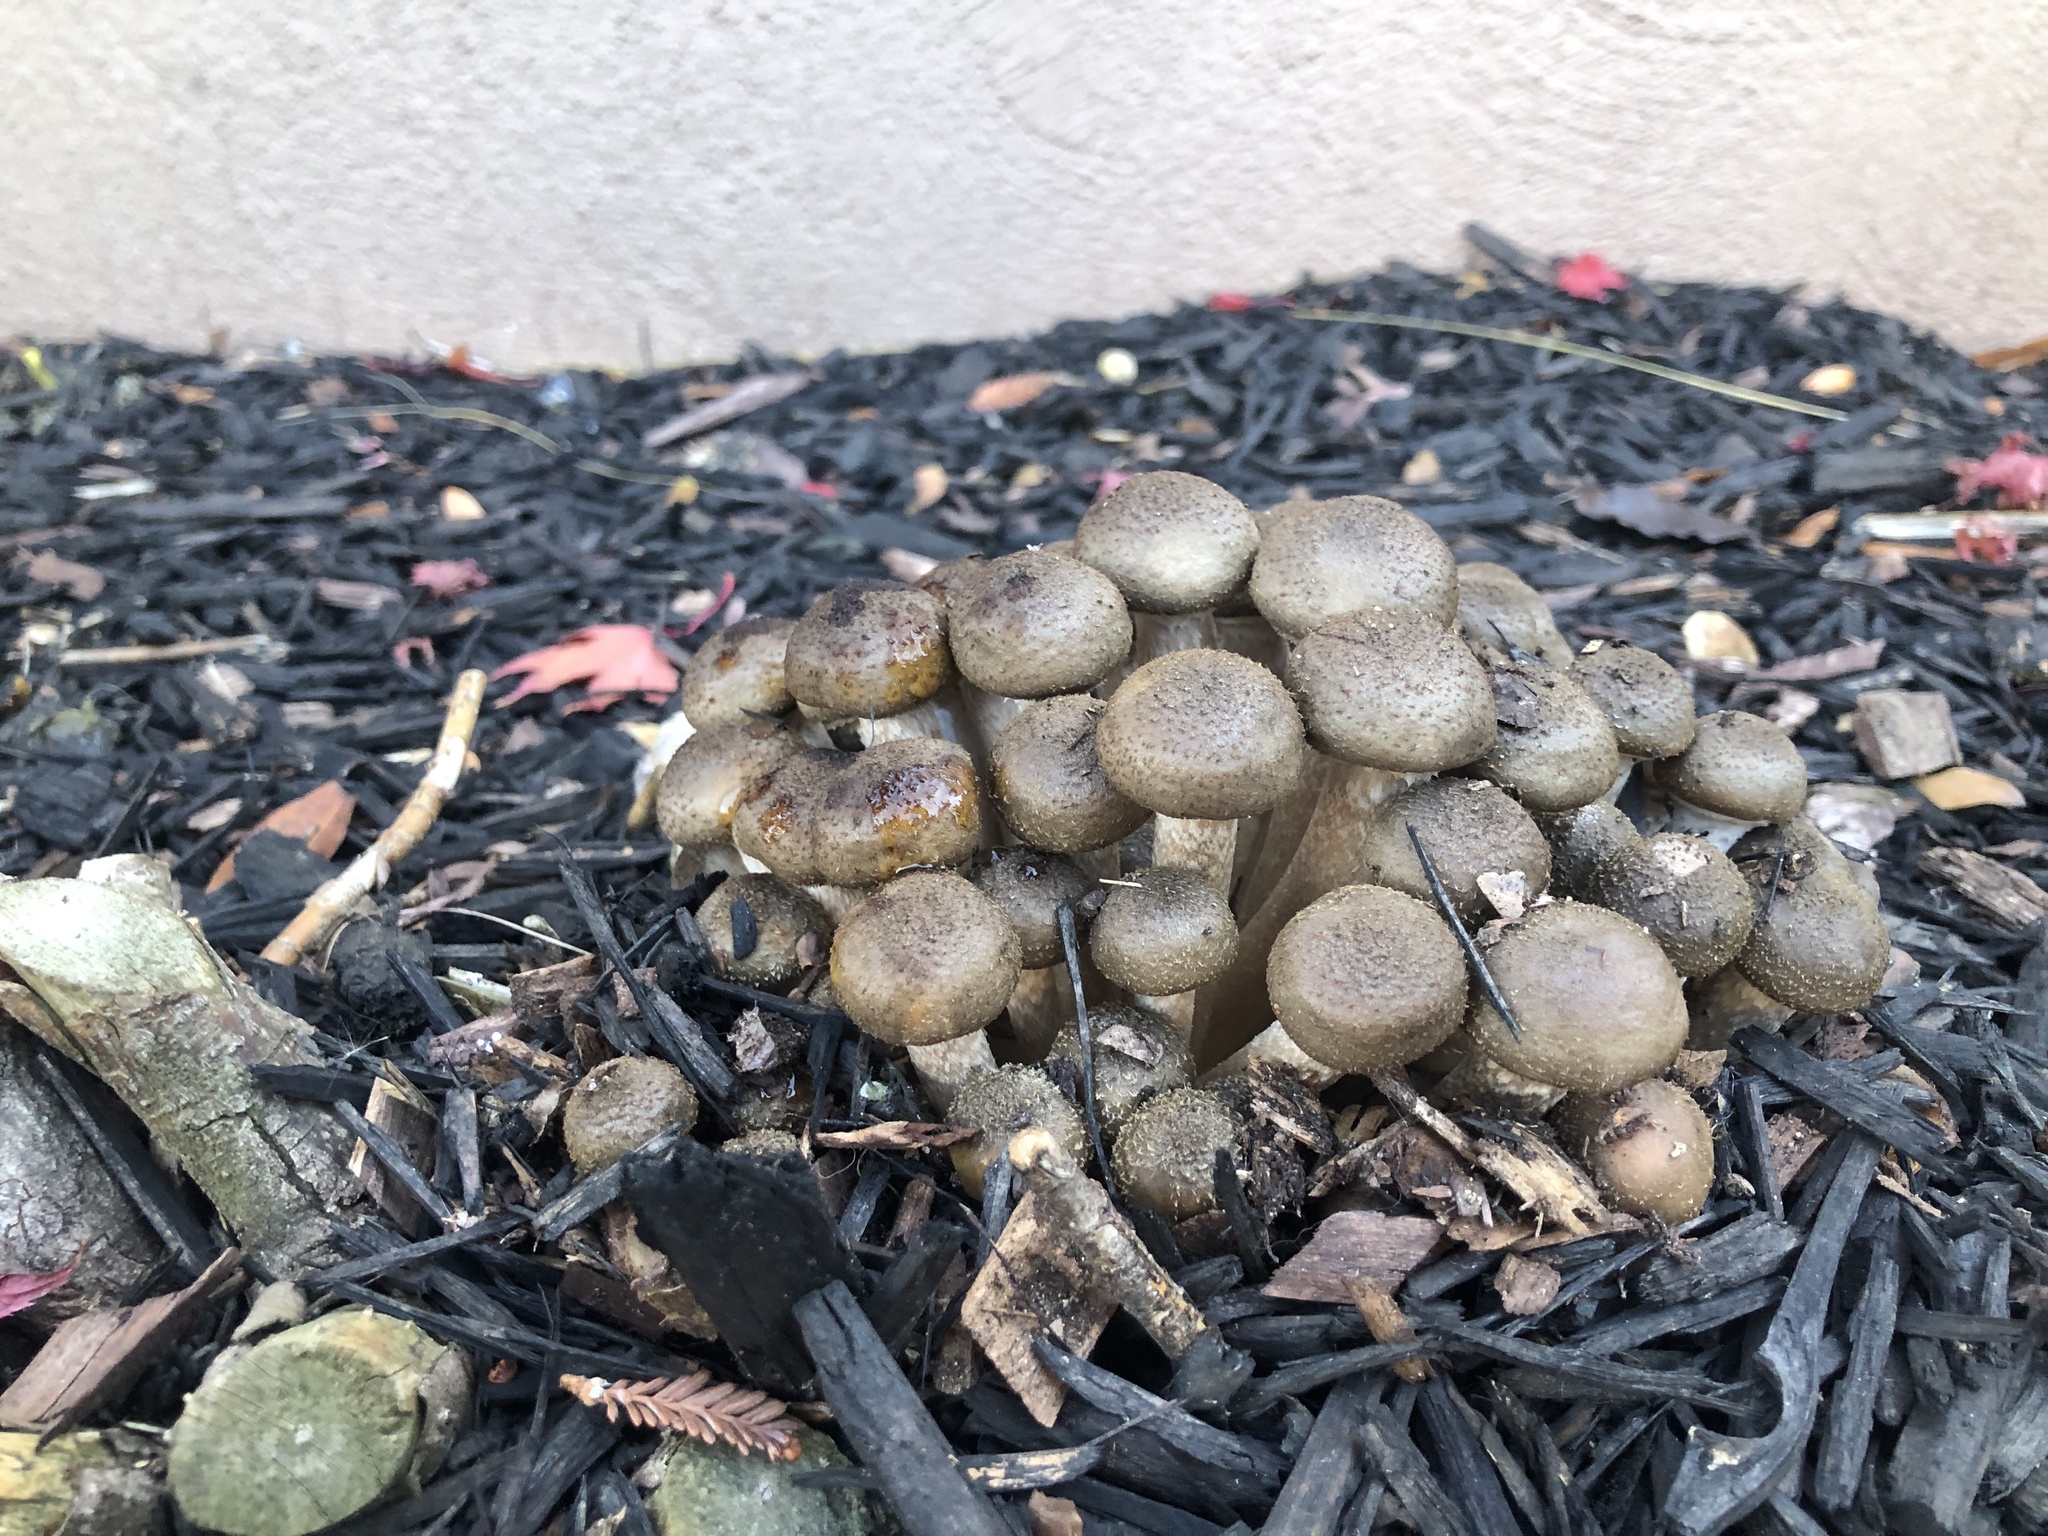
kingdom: Fungi
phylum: Basidiomycota
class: Agaricomycetes
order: Agaricales
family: Physalacriaceae
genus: Armillaria
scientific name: Armillaria mellea
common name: Honey fungus
